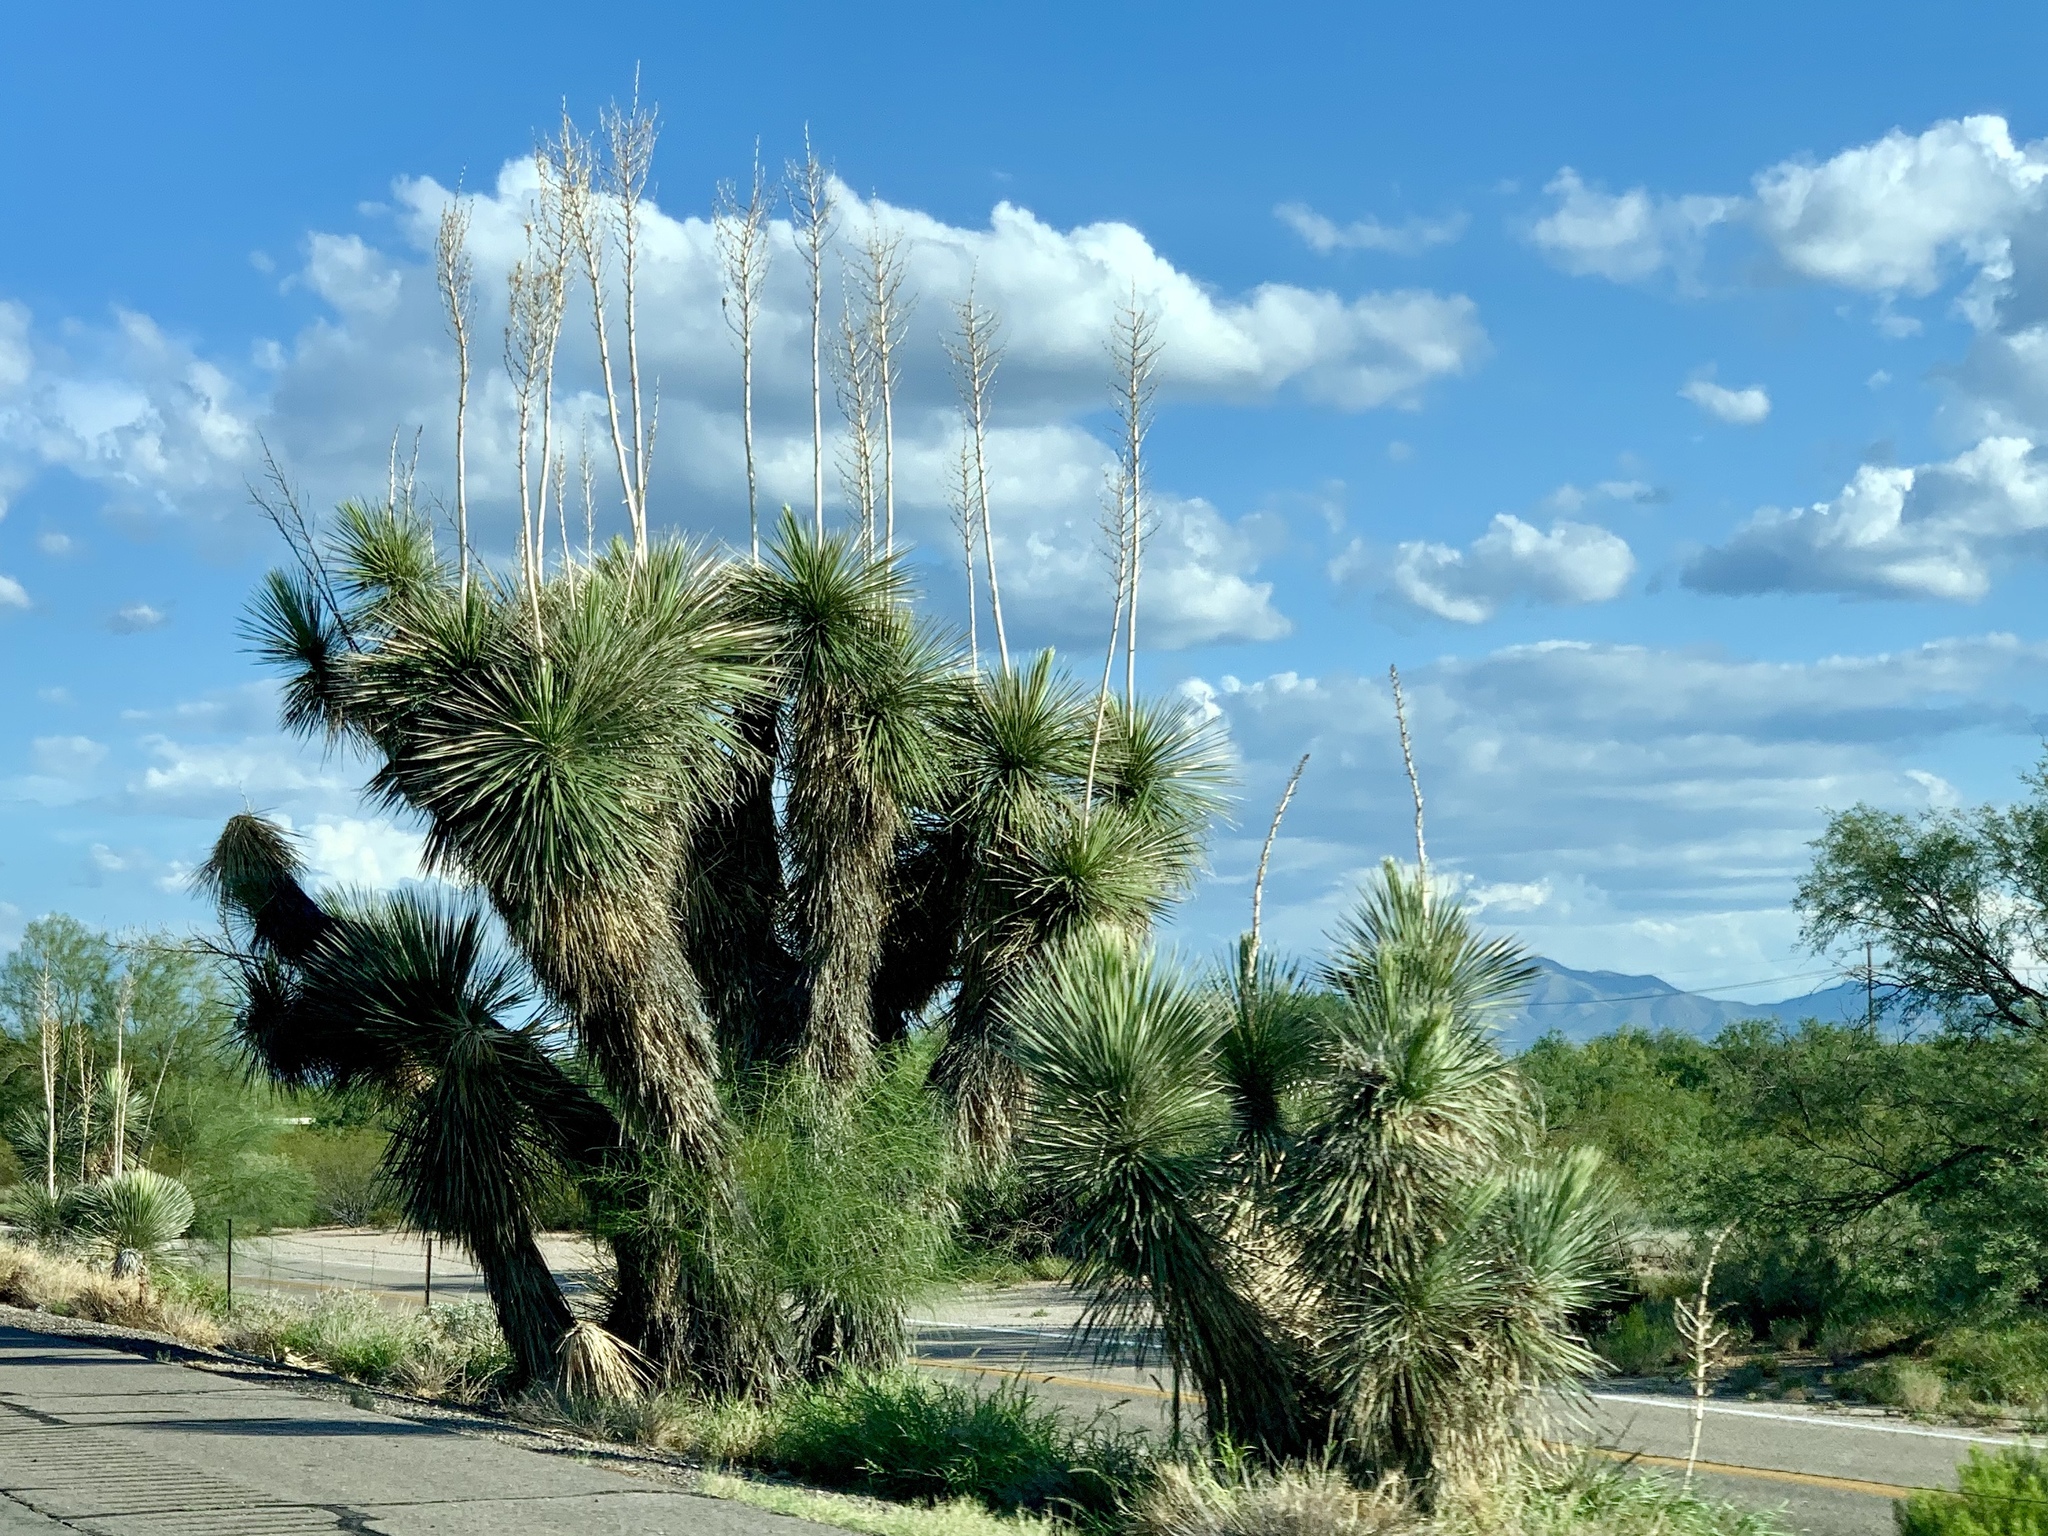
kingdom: Plantae
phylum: Tracheophyta
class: Liliopsida
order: Asparagales
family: Asparagaceae
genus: Yucca
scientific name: Yucca elata
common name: Palmella
